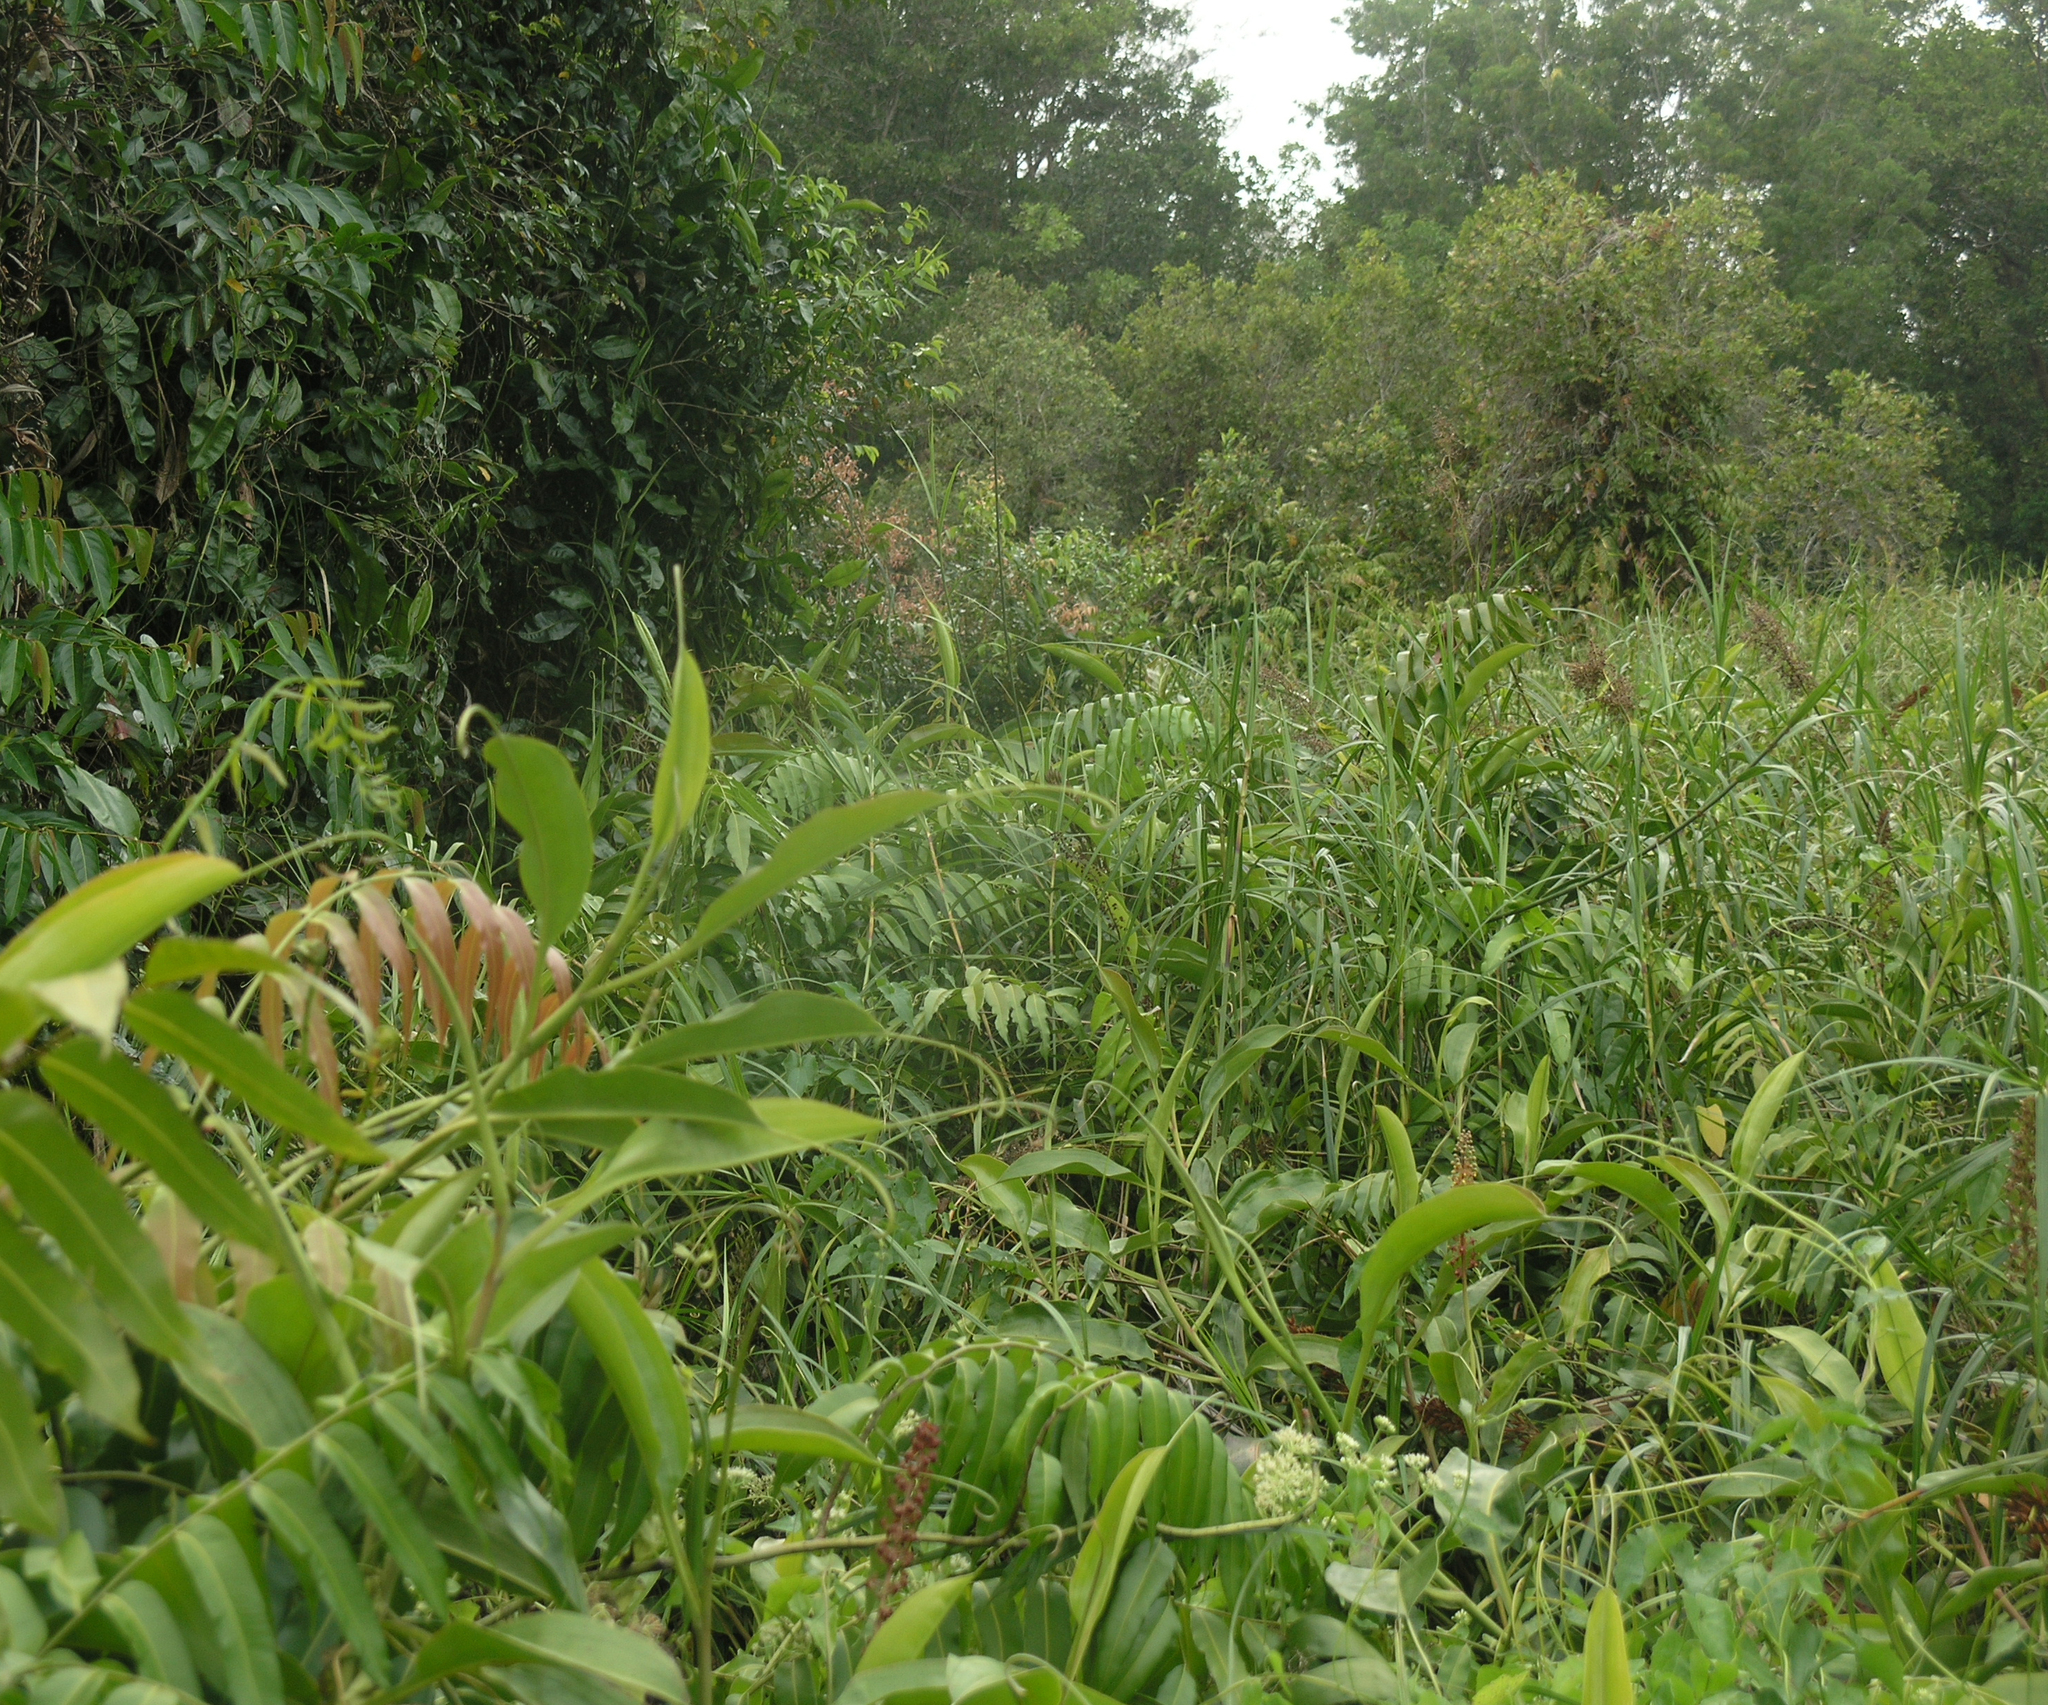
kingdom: Plantae
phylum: Tracheophyta
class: Magnoliopsida
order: Caryophyllales
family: Nepenthaceae
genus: Nepenthes
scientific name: Nepenthes mirabilis
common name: Tropical pitcherplant
